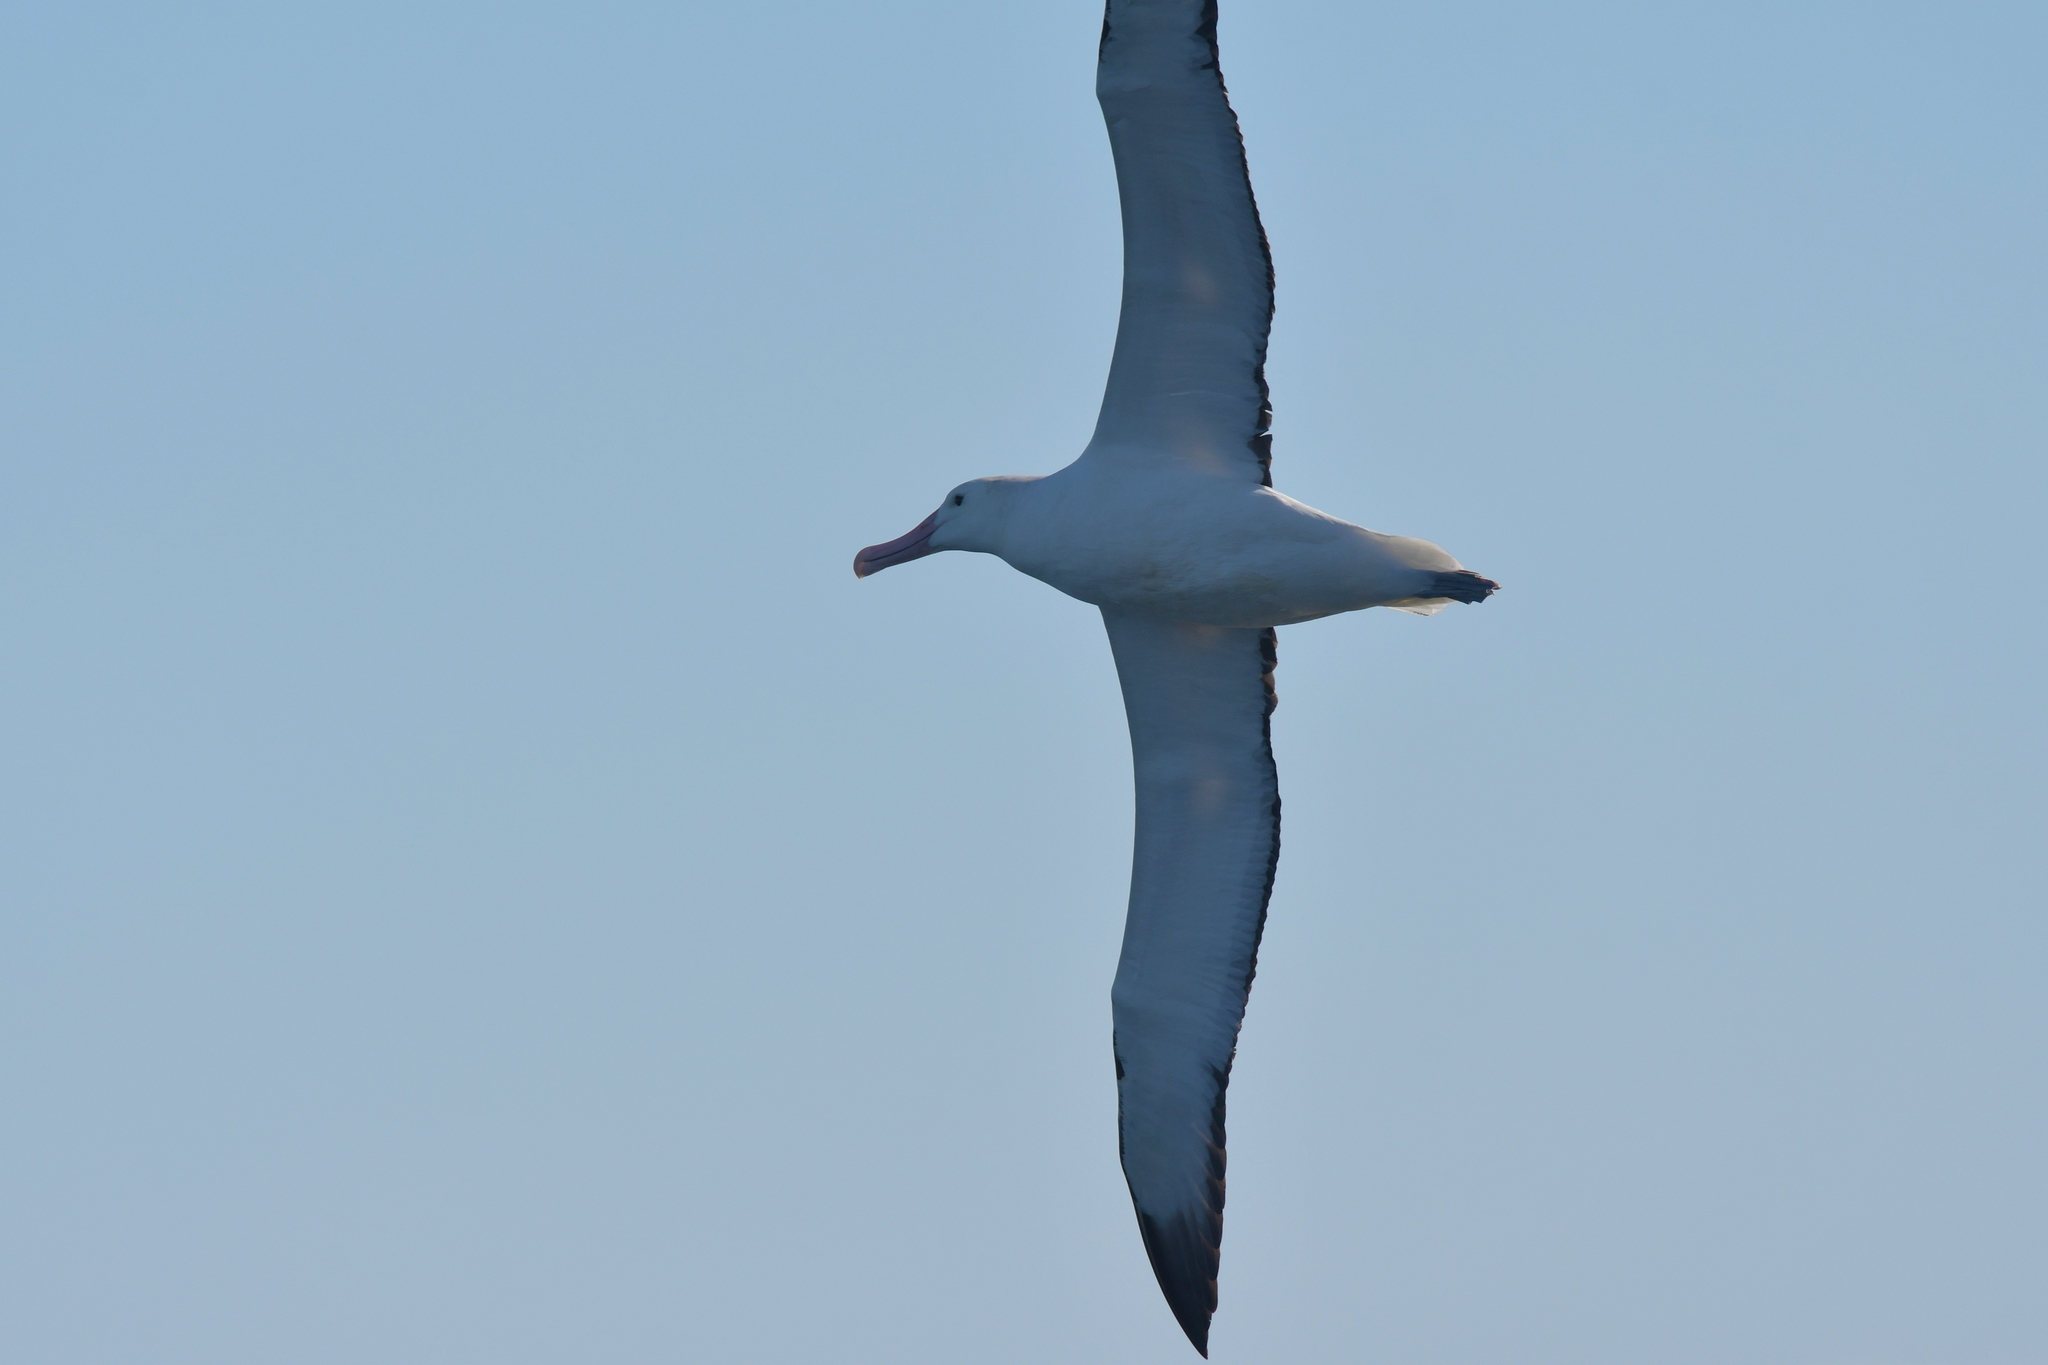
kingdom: Animalia
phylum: Chordata
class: Aves
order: Procellariiformes
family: Diomedeidae
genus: Diomedea
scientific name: Diomedea epomophora
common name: Southern royal albatross
